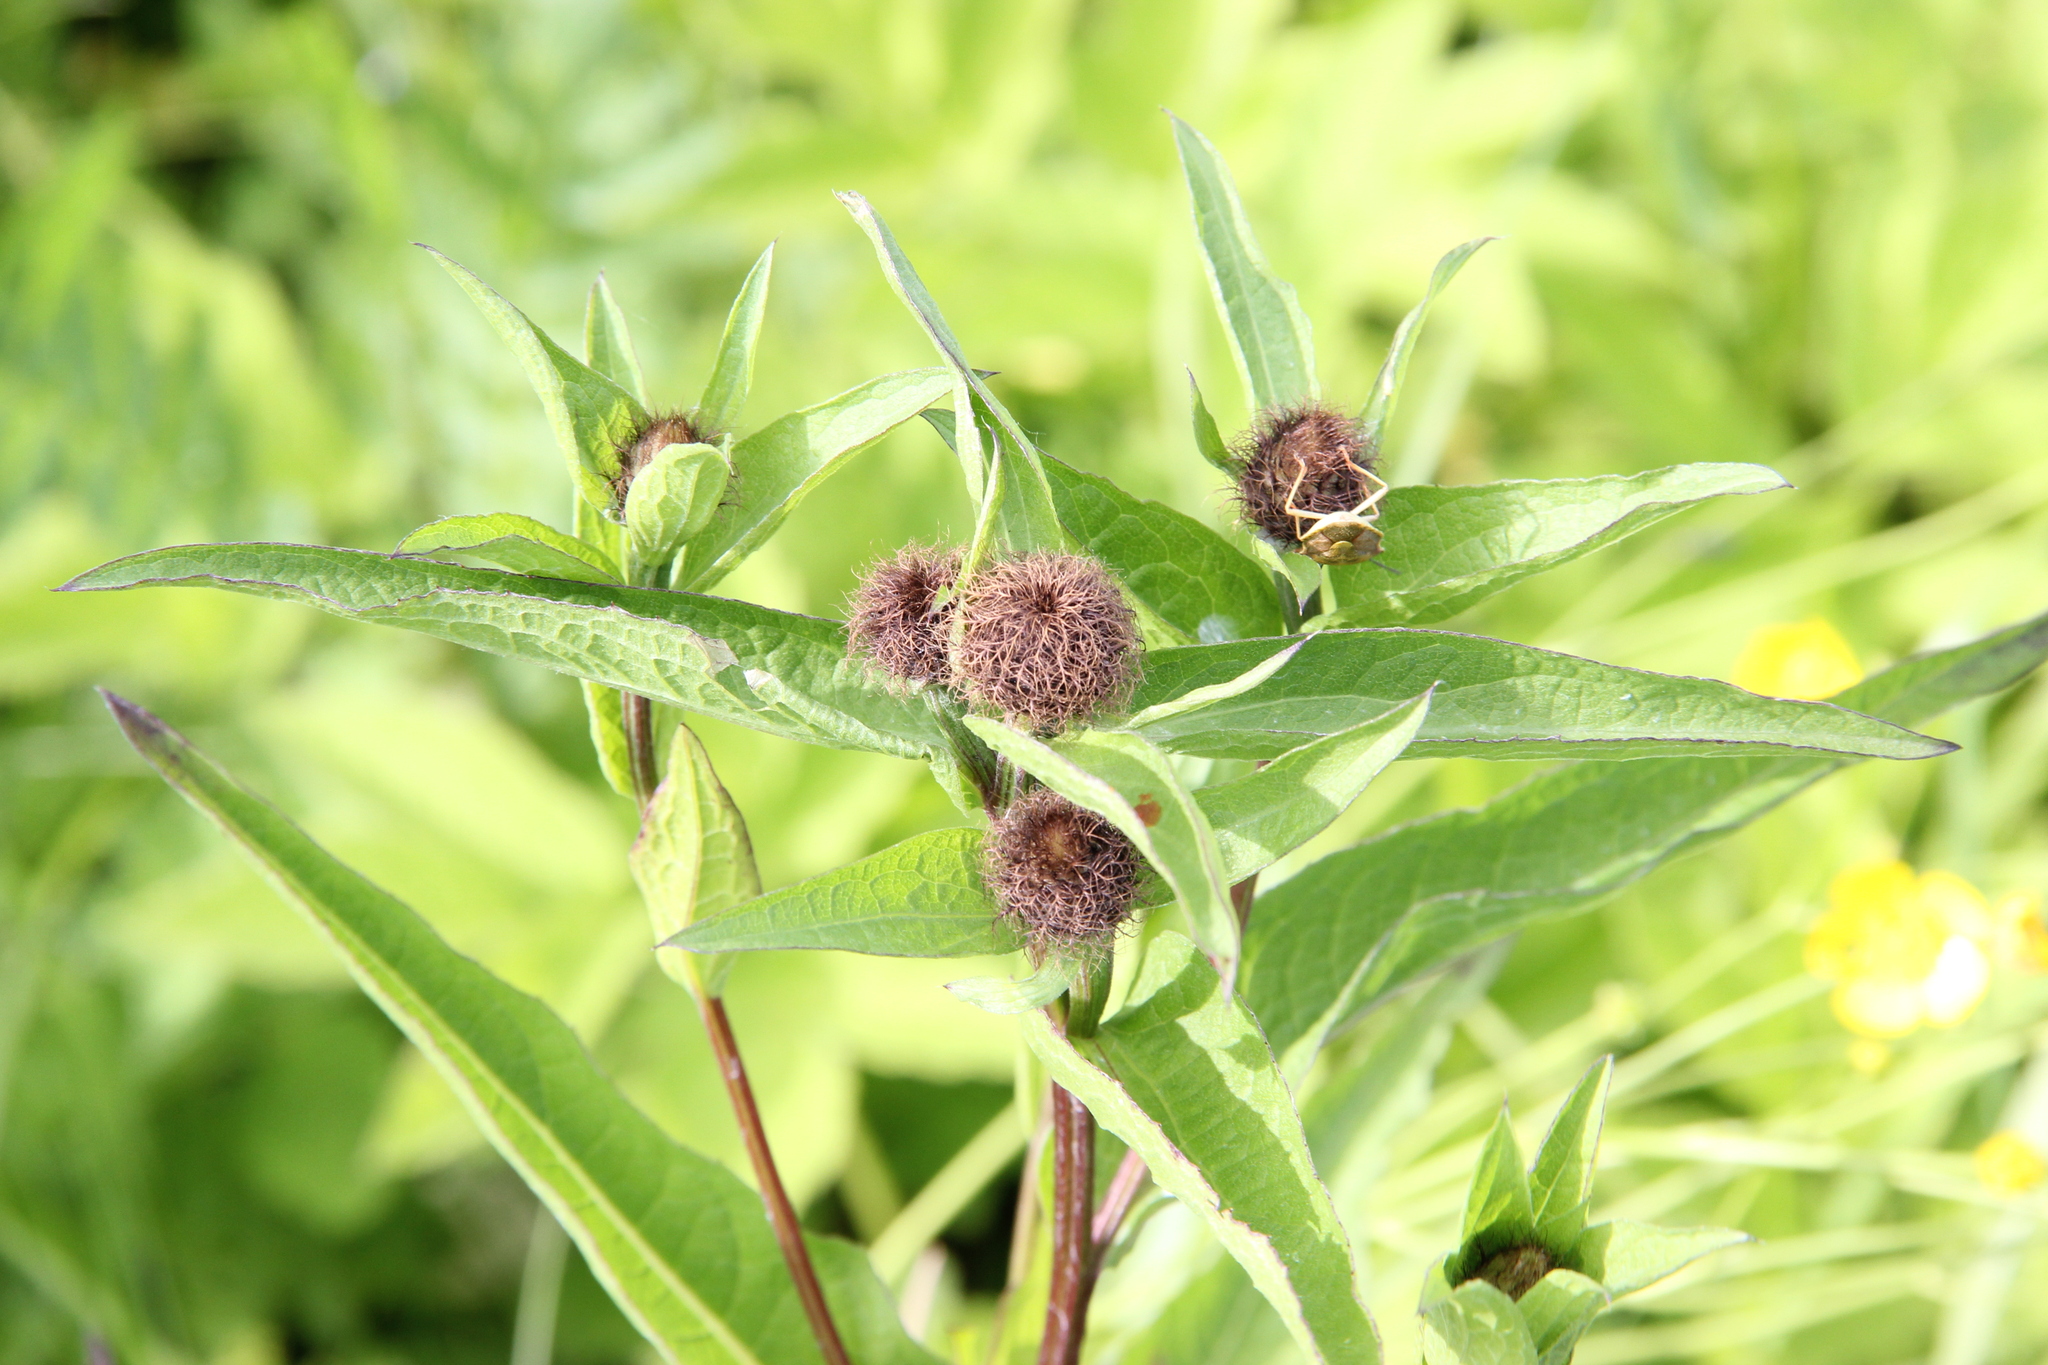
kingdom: Plantae
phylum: Tracheophyta
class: Magnoliopsida
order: Asterales
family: Asteraceae
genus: Centaurea
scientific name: Centaurea pseudophrygia
